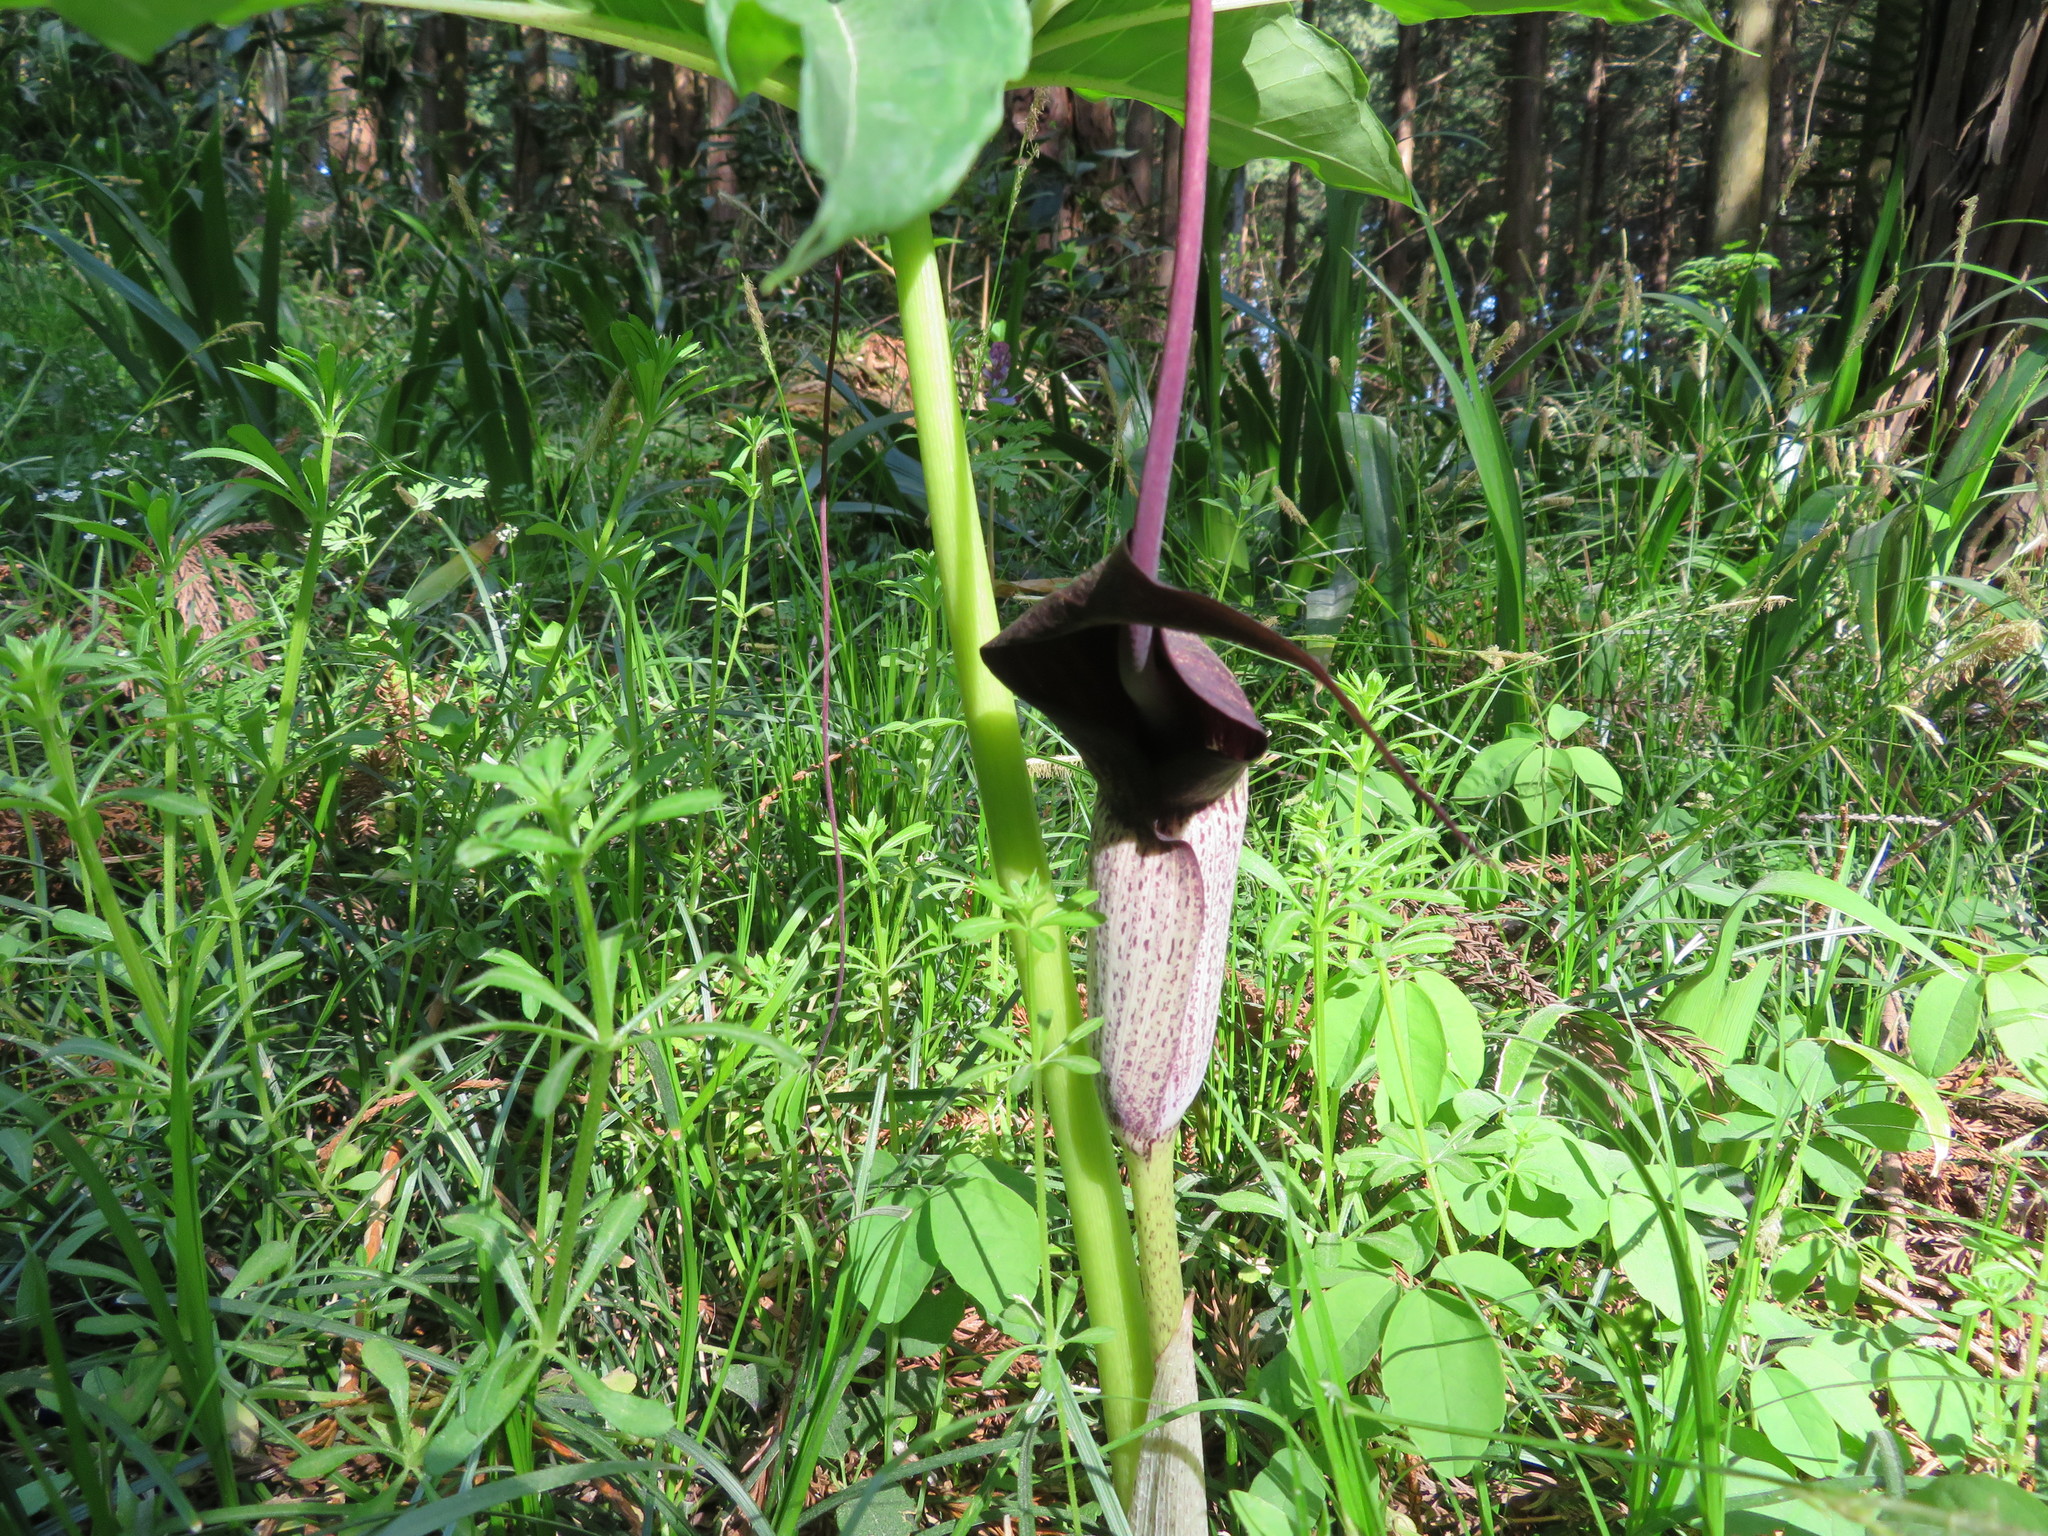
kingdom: Plantae
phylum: Tracheophyta
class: Liliopsida
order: Alismatales
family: Araceae
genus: Arisaema
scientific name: Arisaema thunbergii
